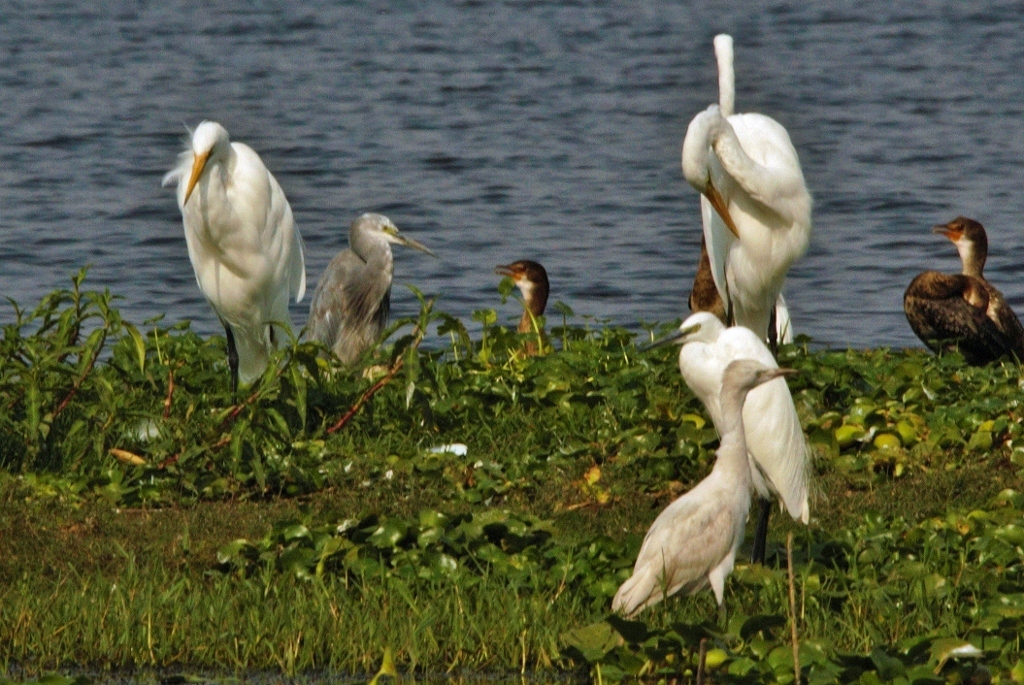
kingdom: Animalia
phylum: Chordata
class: Aves
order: Pelecaniformes
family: Ardeidae
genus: Egretta
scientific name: Egretta garzetta
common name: Little egret
